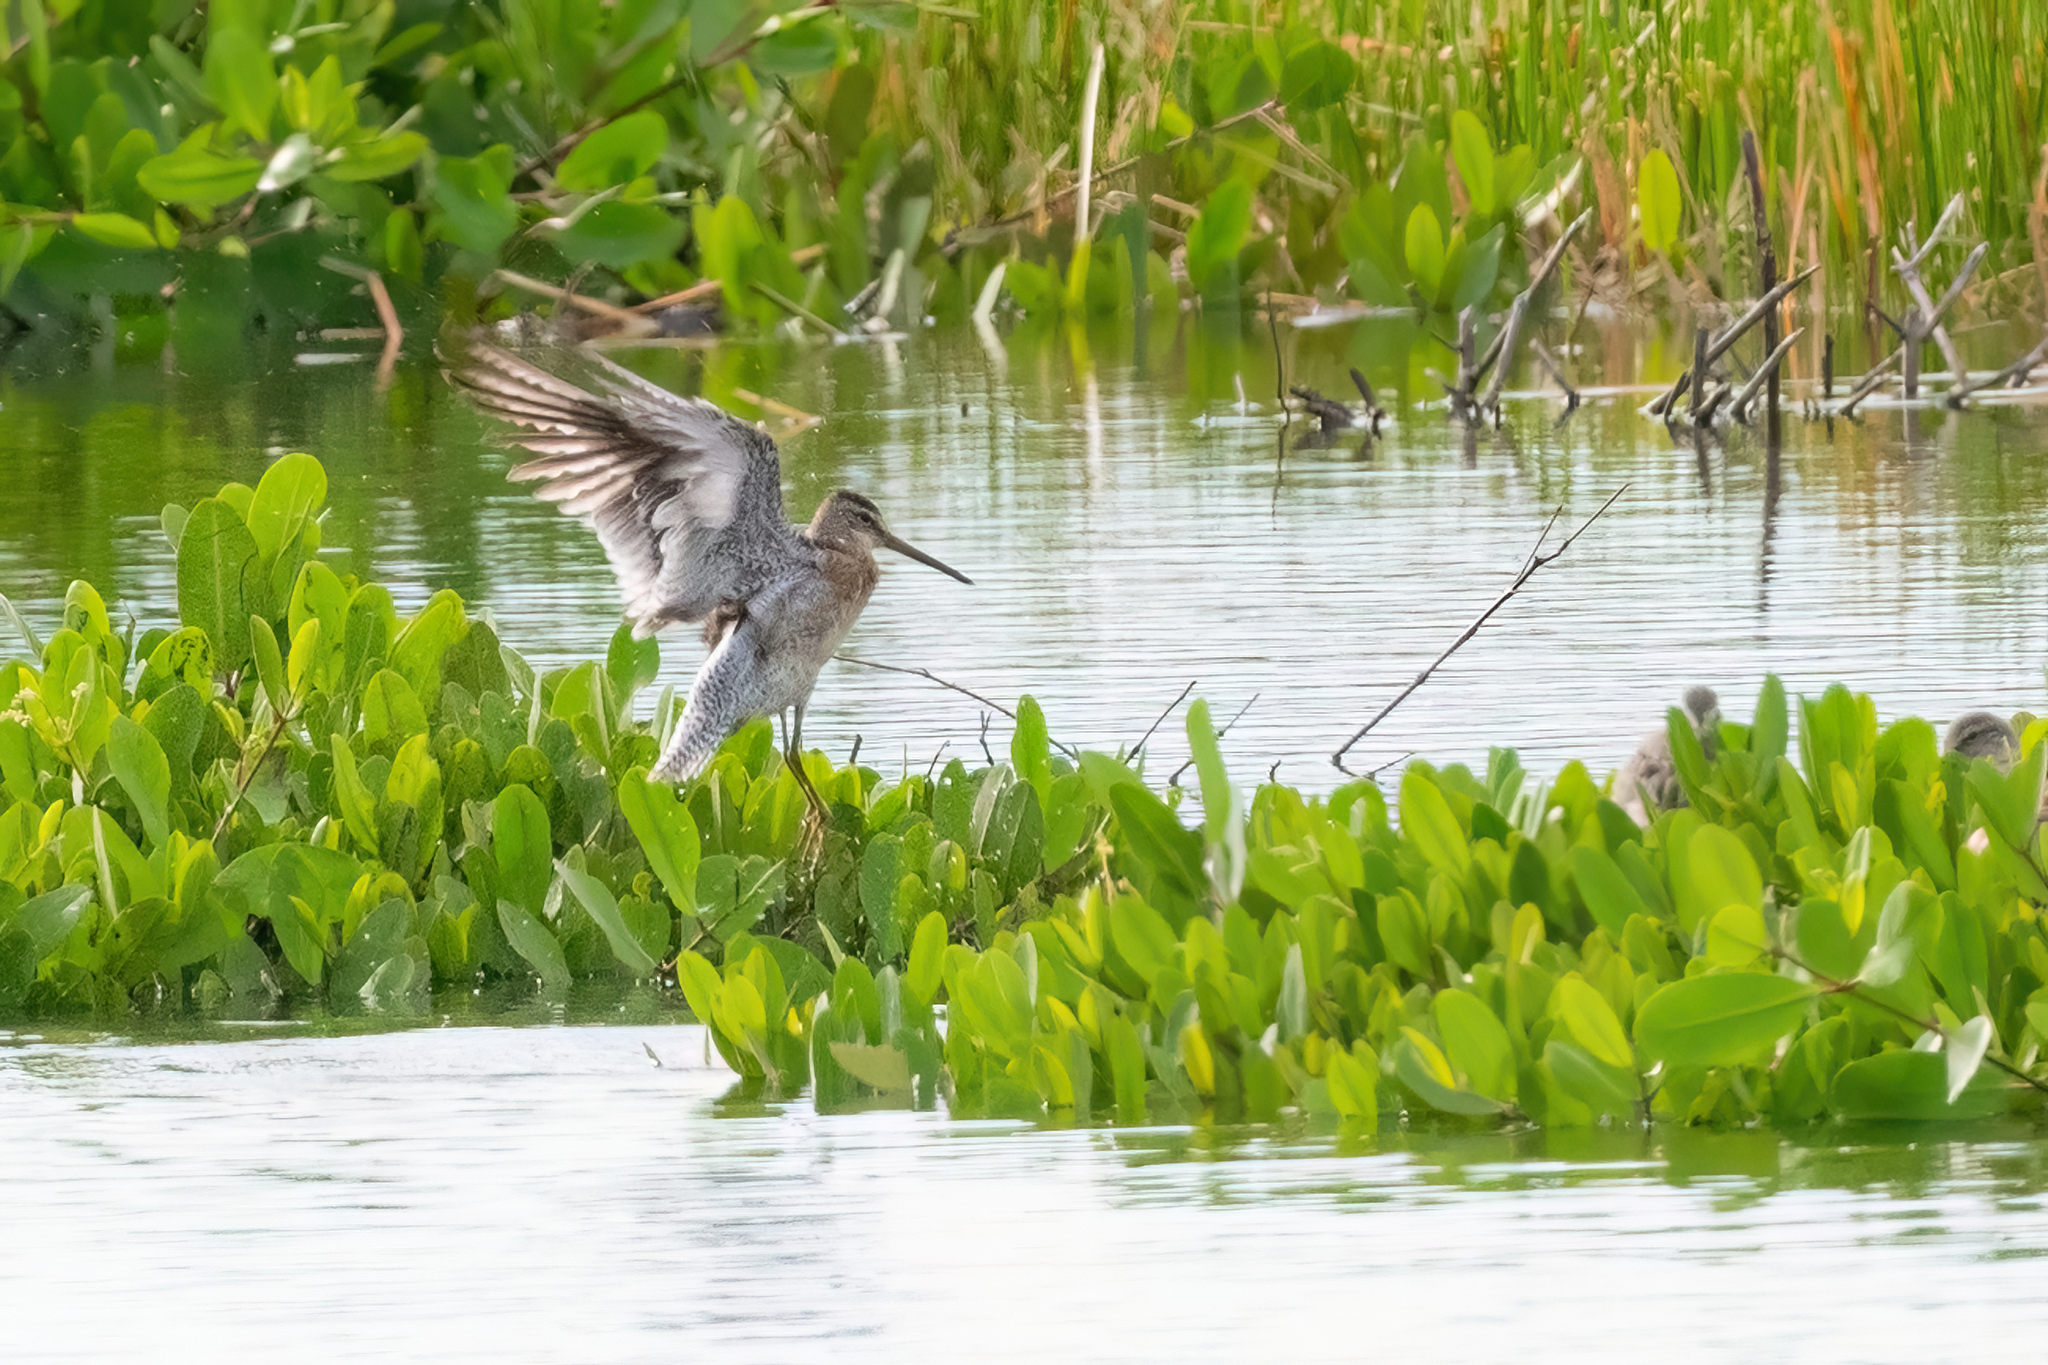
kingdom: Animalia
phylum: Chordata
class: Aves
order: Charadriiformes
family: Scolopacidae
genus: Limnodromus
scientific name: Limnodromus griseus
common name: Short-billed dowitcher
